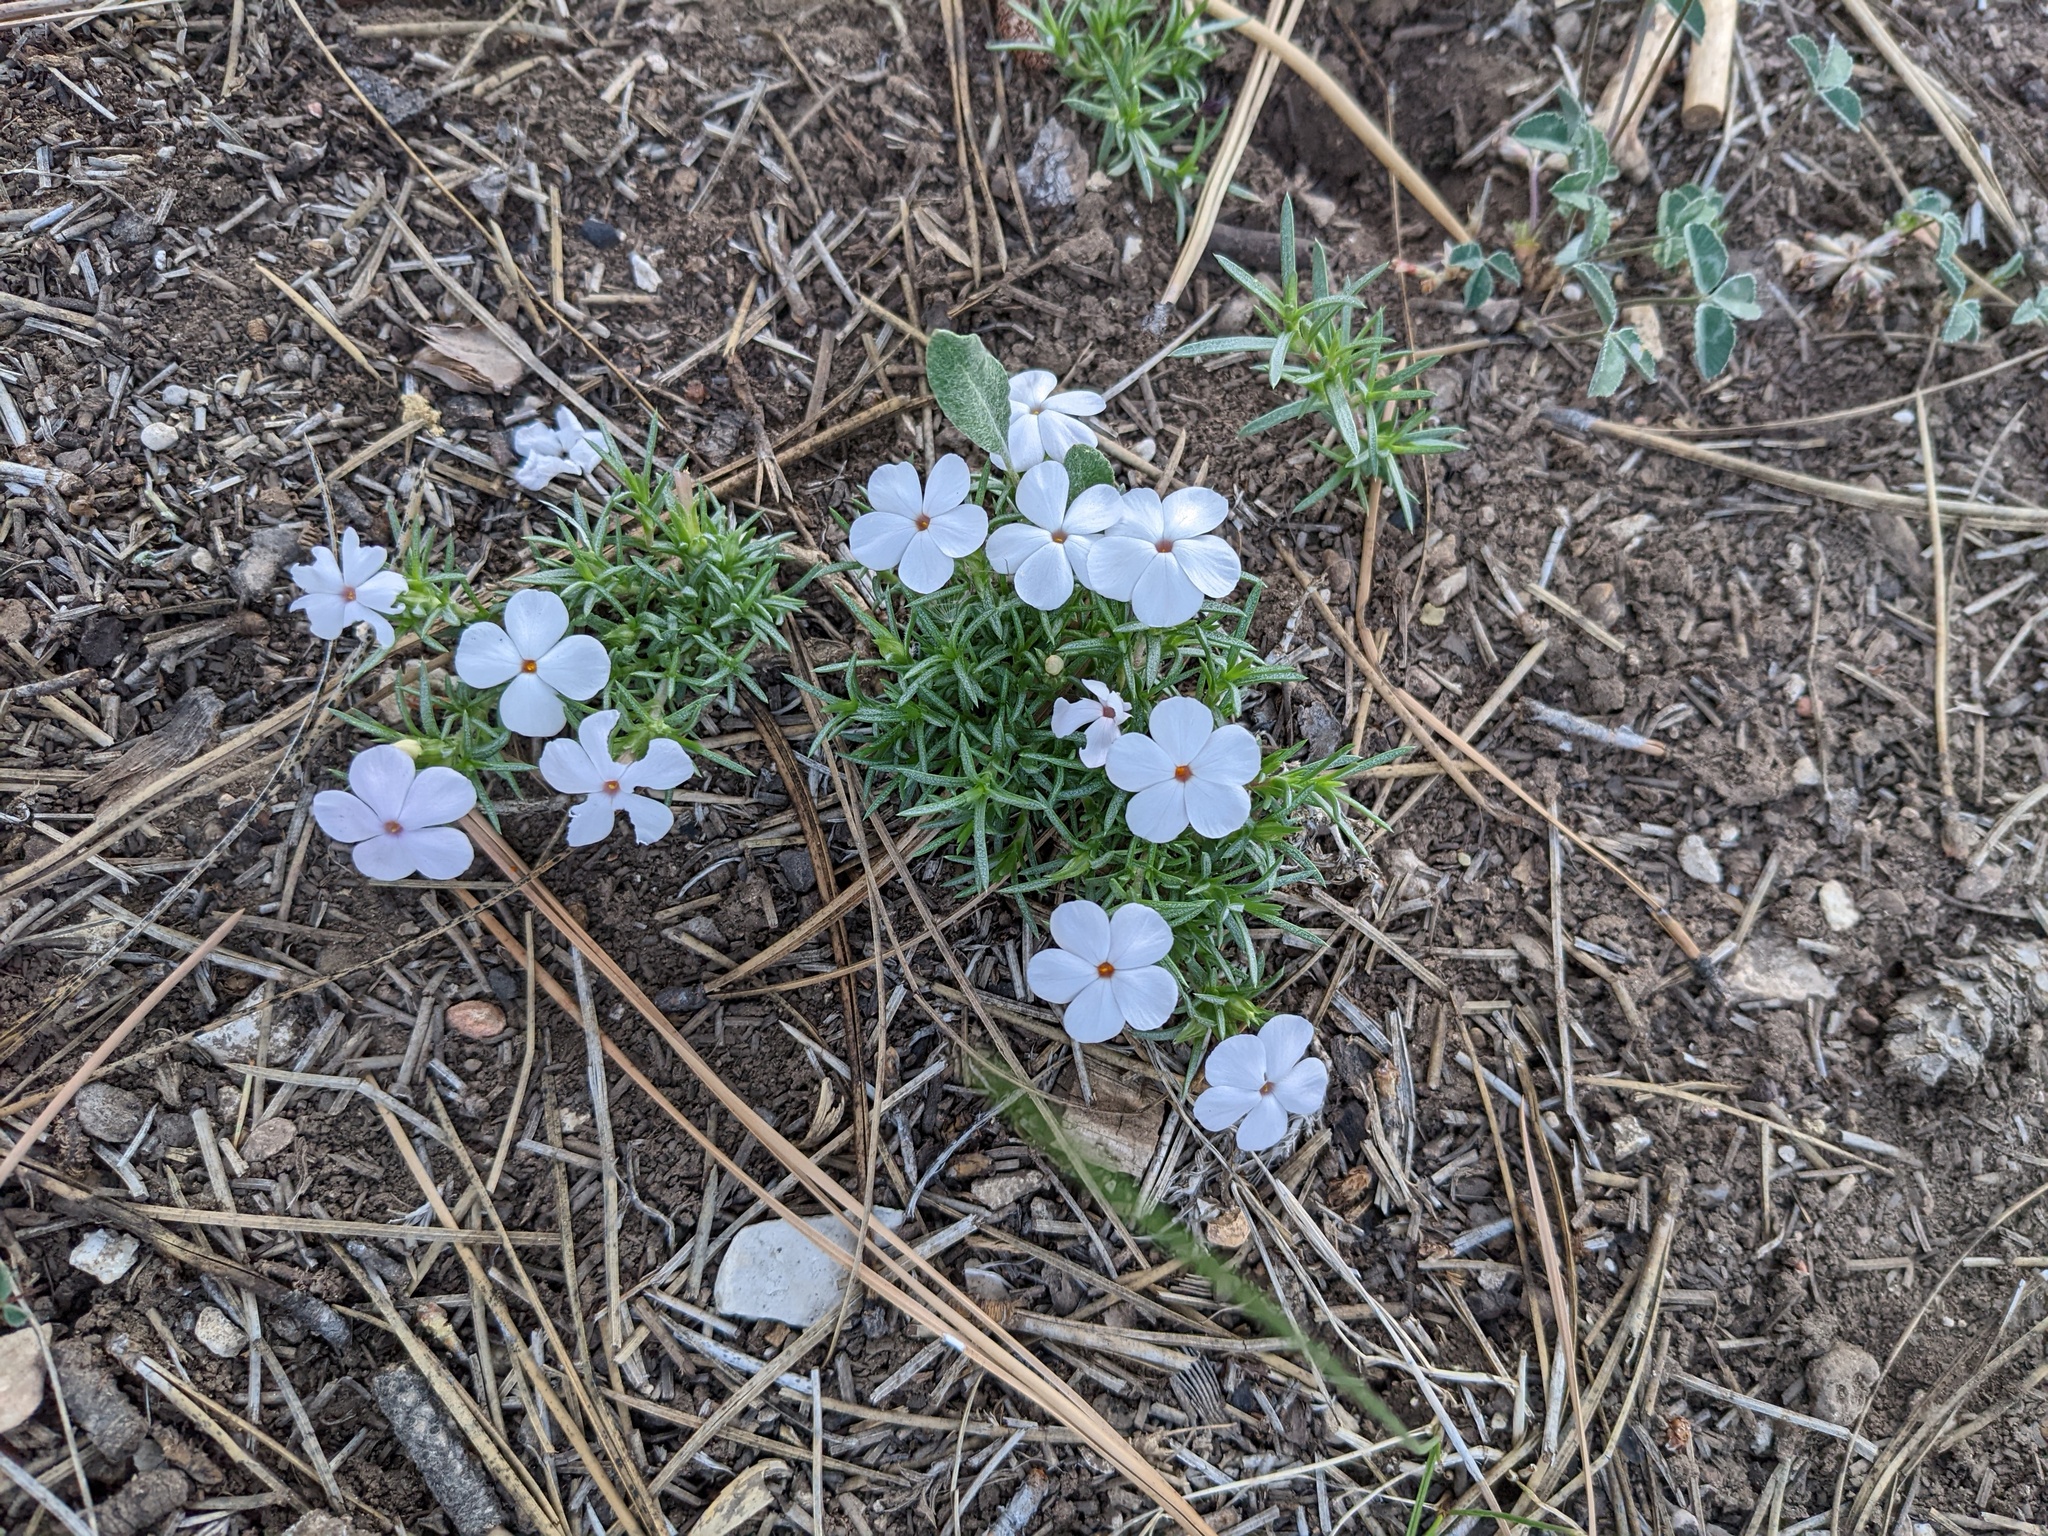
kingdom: Plantae
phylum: Tracheophyta
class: Magnoliopsida
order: Ericales
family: Polemoniaceae
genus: Phlox
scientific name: Phlox austromontana
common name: Desert phlox
